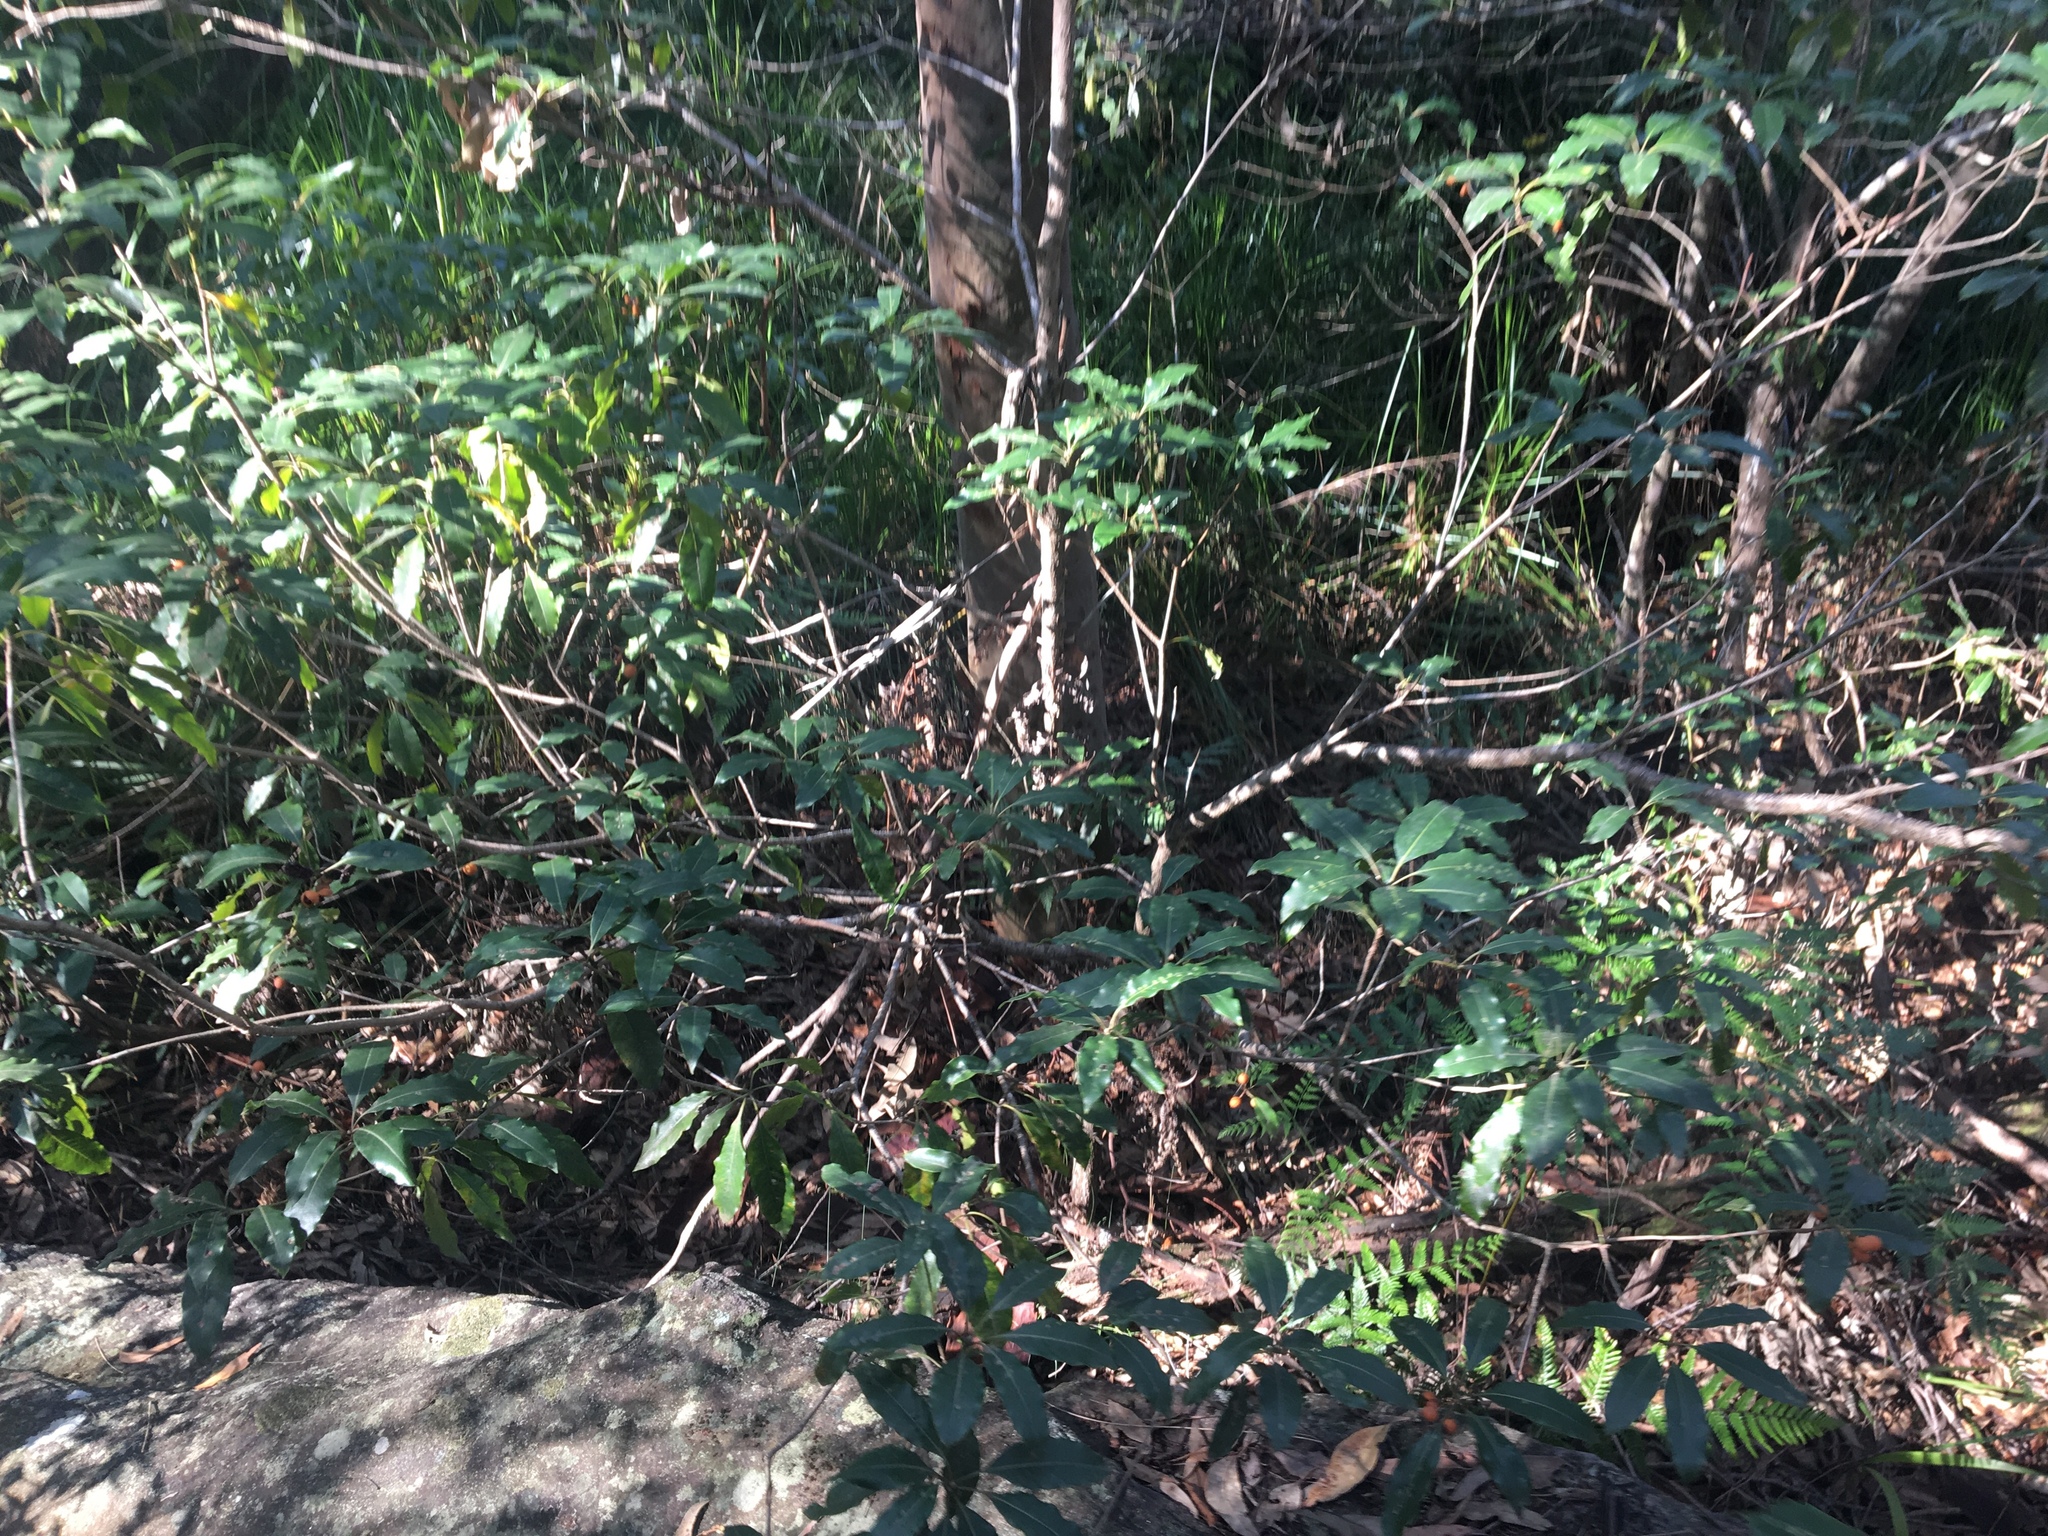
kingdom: Plantae
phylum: Tracheophyta
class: Magnoliopsida
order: Apiales
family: Pittosporaceae
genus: Pittosporum
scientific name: Pittosporum undulatum
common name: Australian cheesewood
